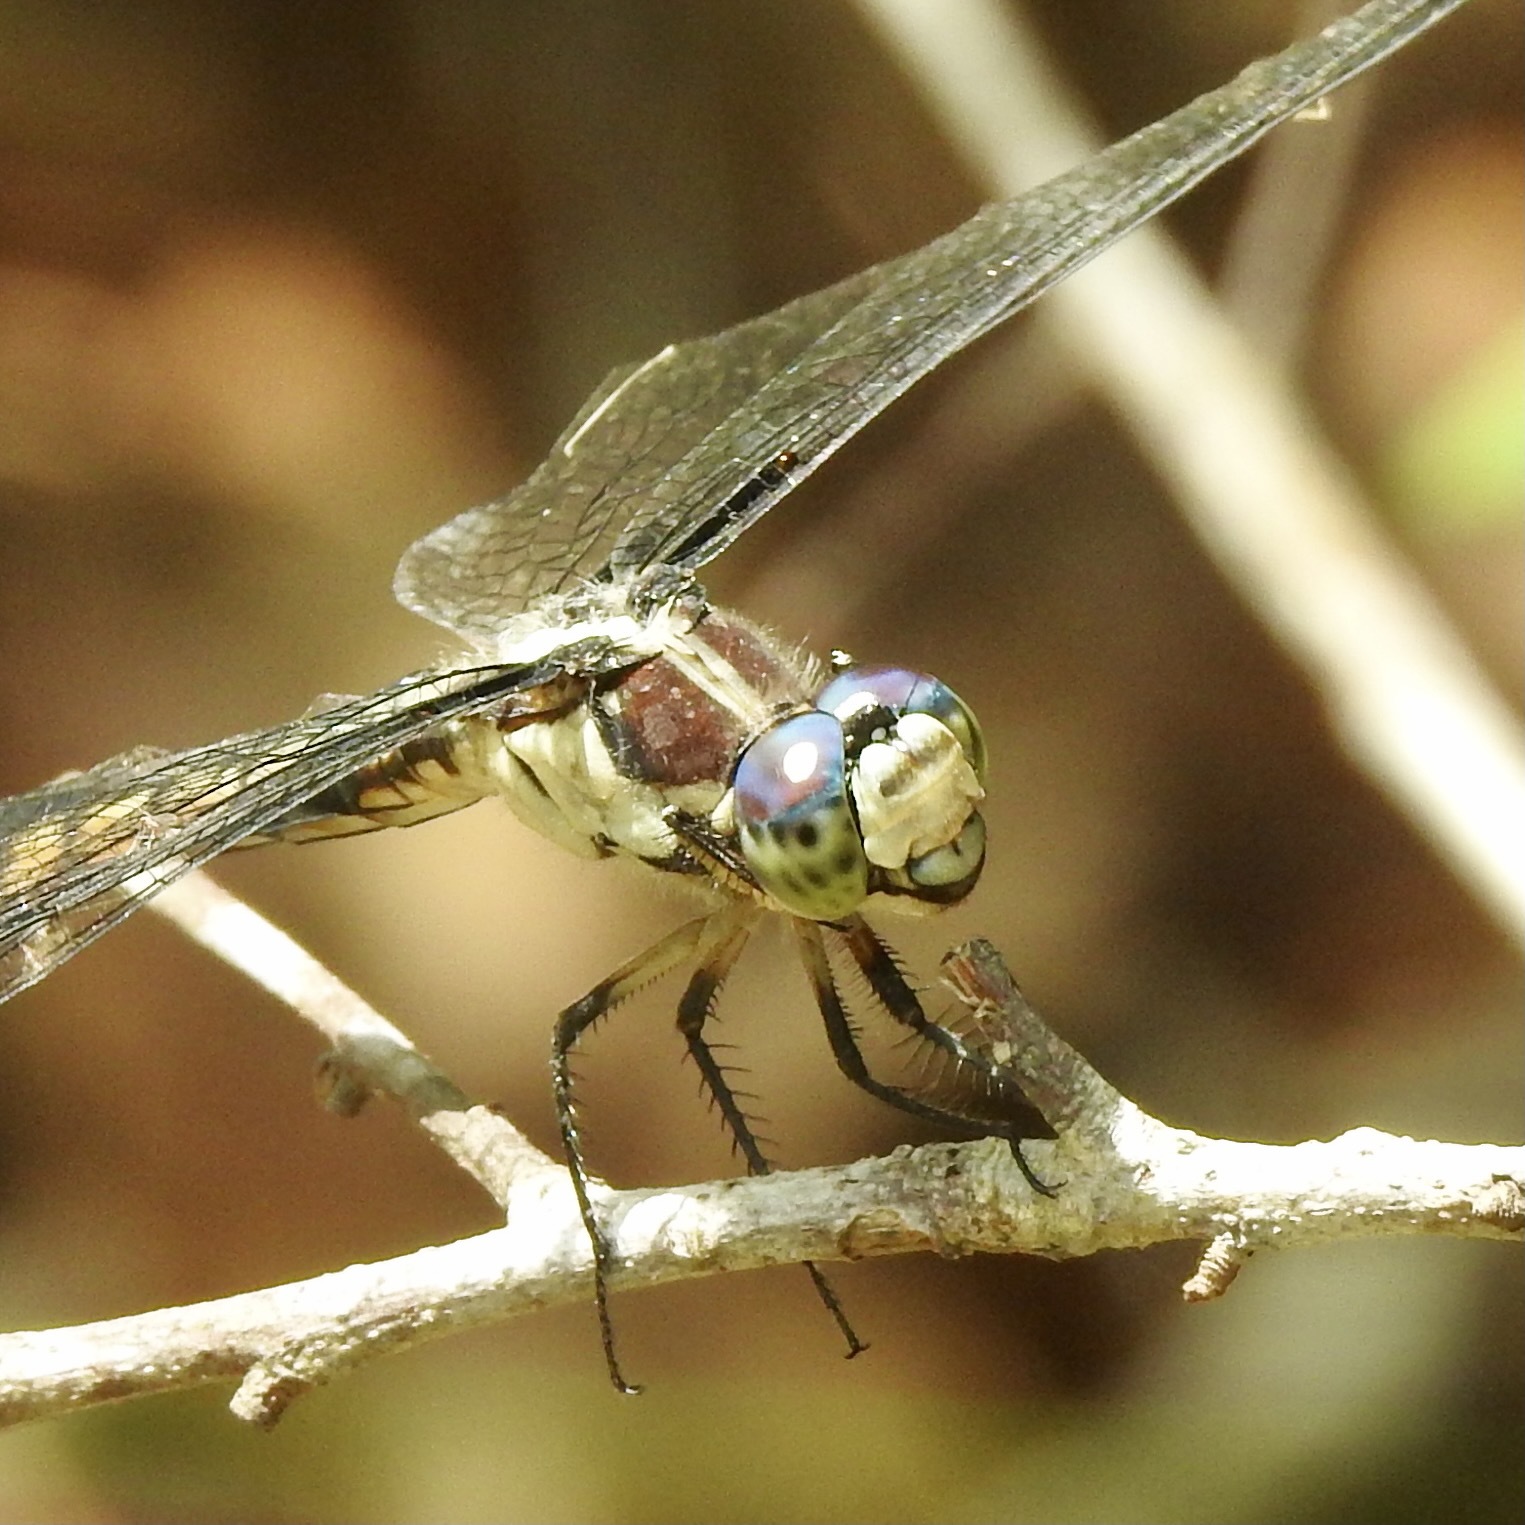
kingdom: Animalia
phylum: Arthropoda
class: Insecta
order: Odonata
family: Libellulidae
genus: Libellula
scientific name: Libellula vibrans
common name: Great blue skimmer
